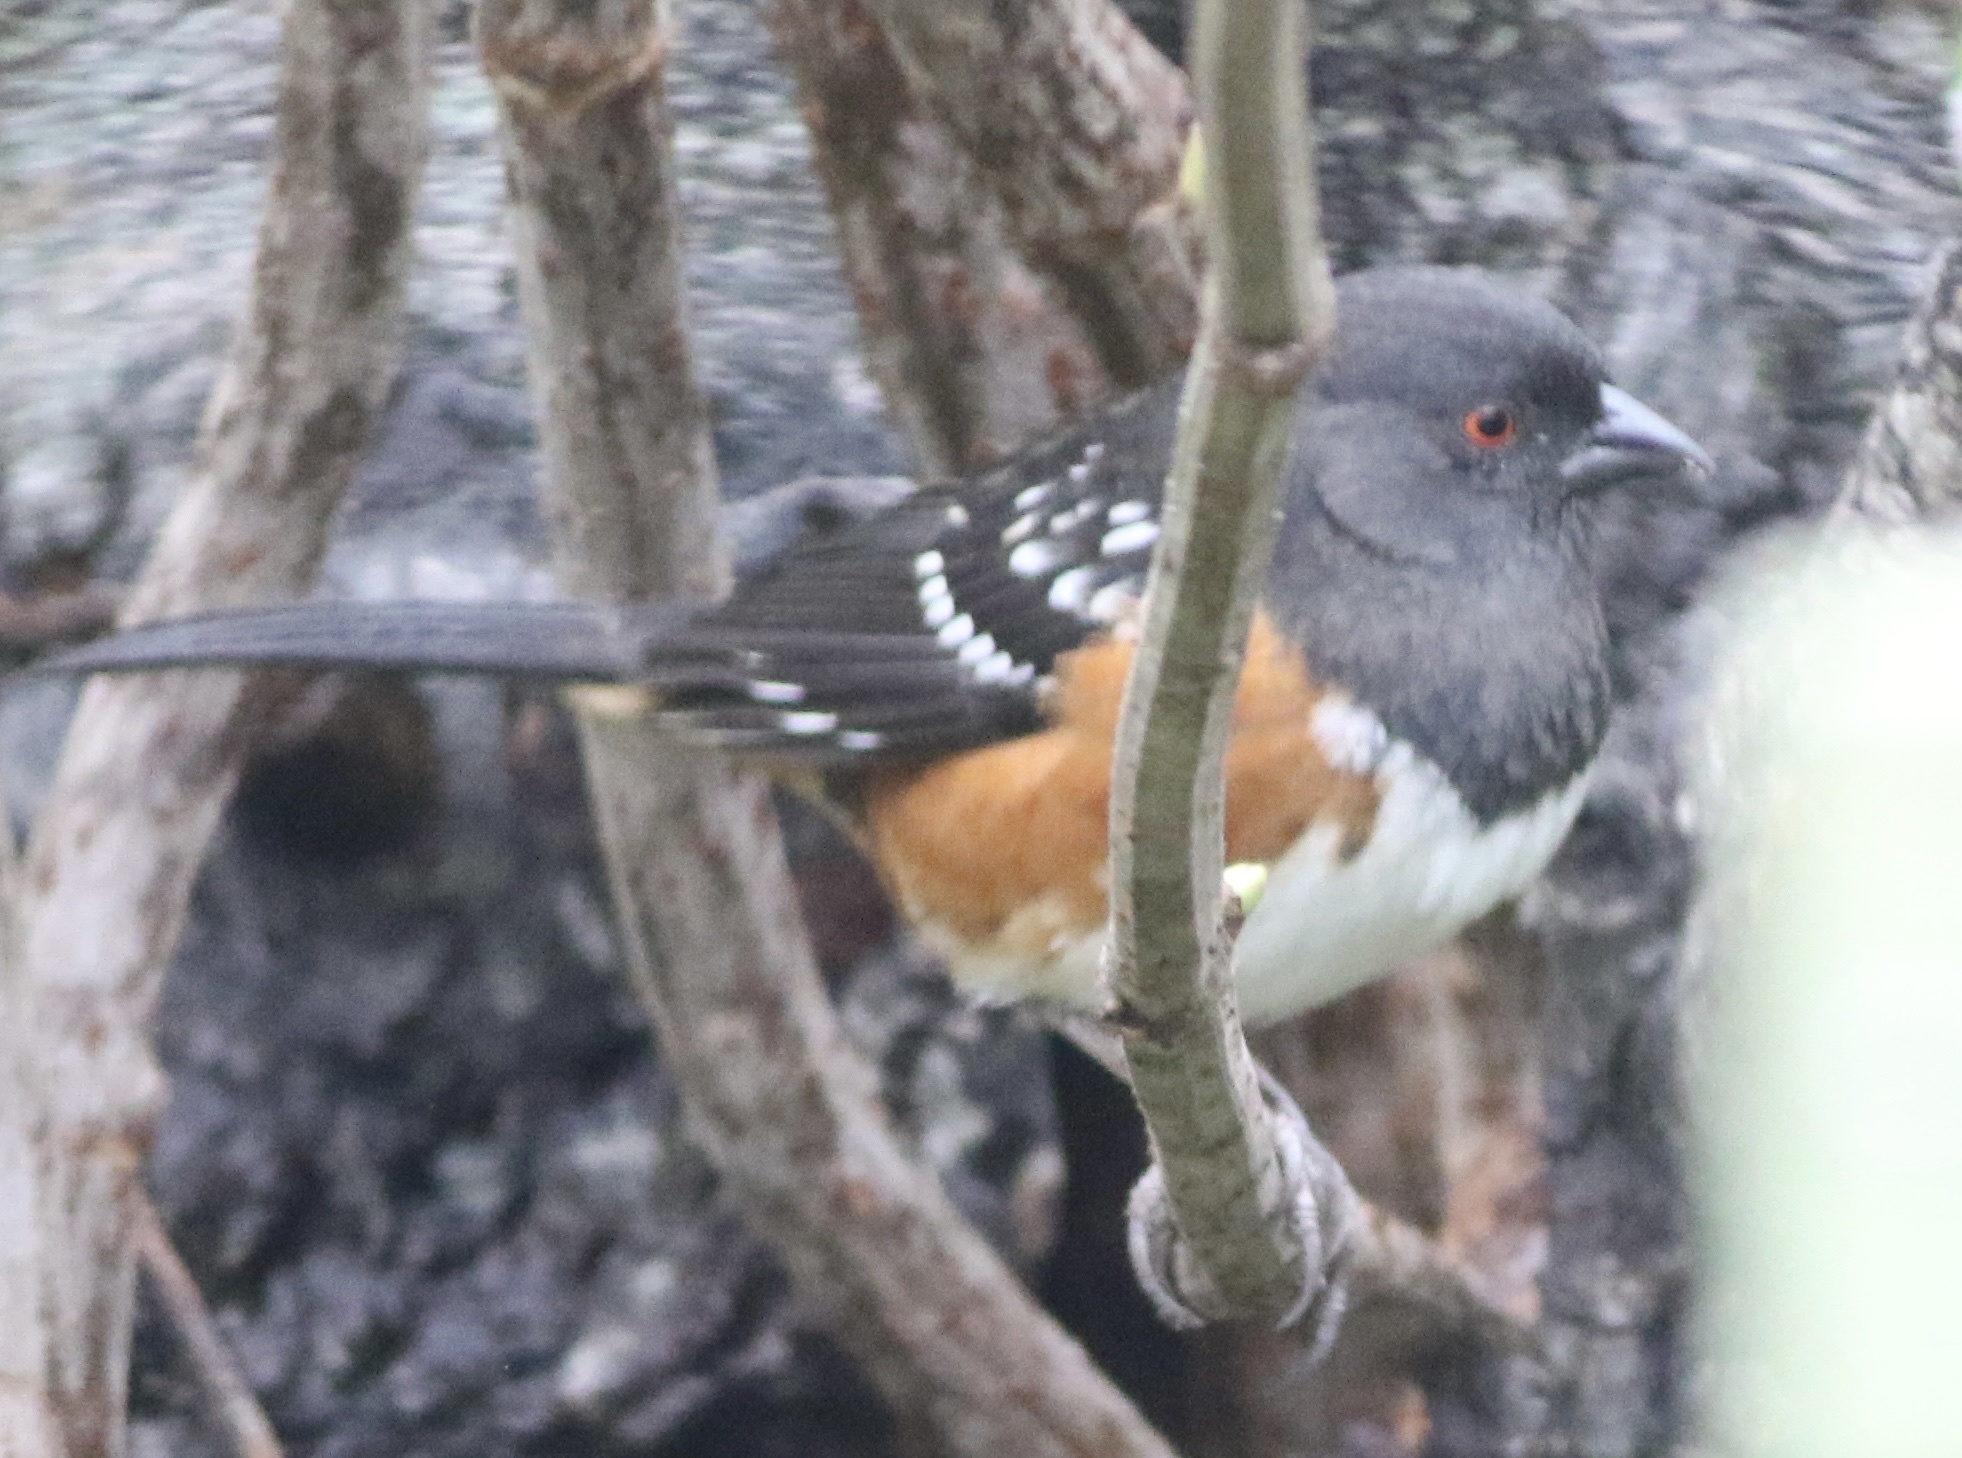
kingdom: Animalia
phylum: Chordata
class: Aves
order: Passeriformes
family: Passerellidae
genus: Pipilo
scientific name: Pipilo maculatus
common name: Spotted towhee
